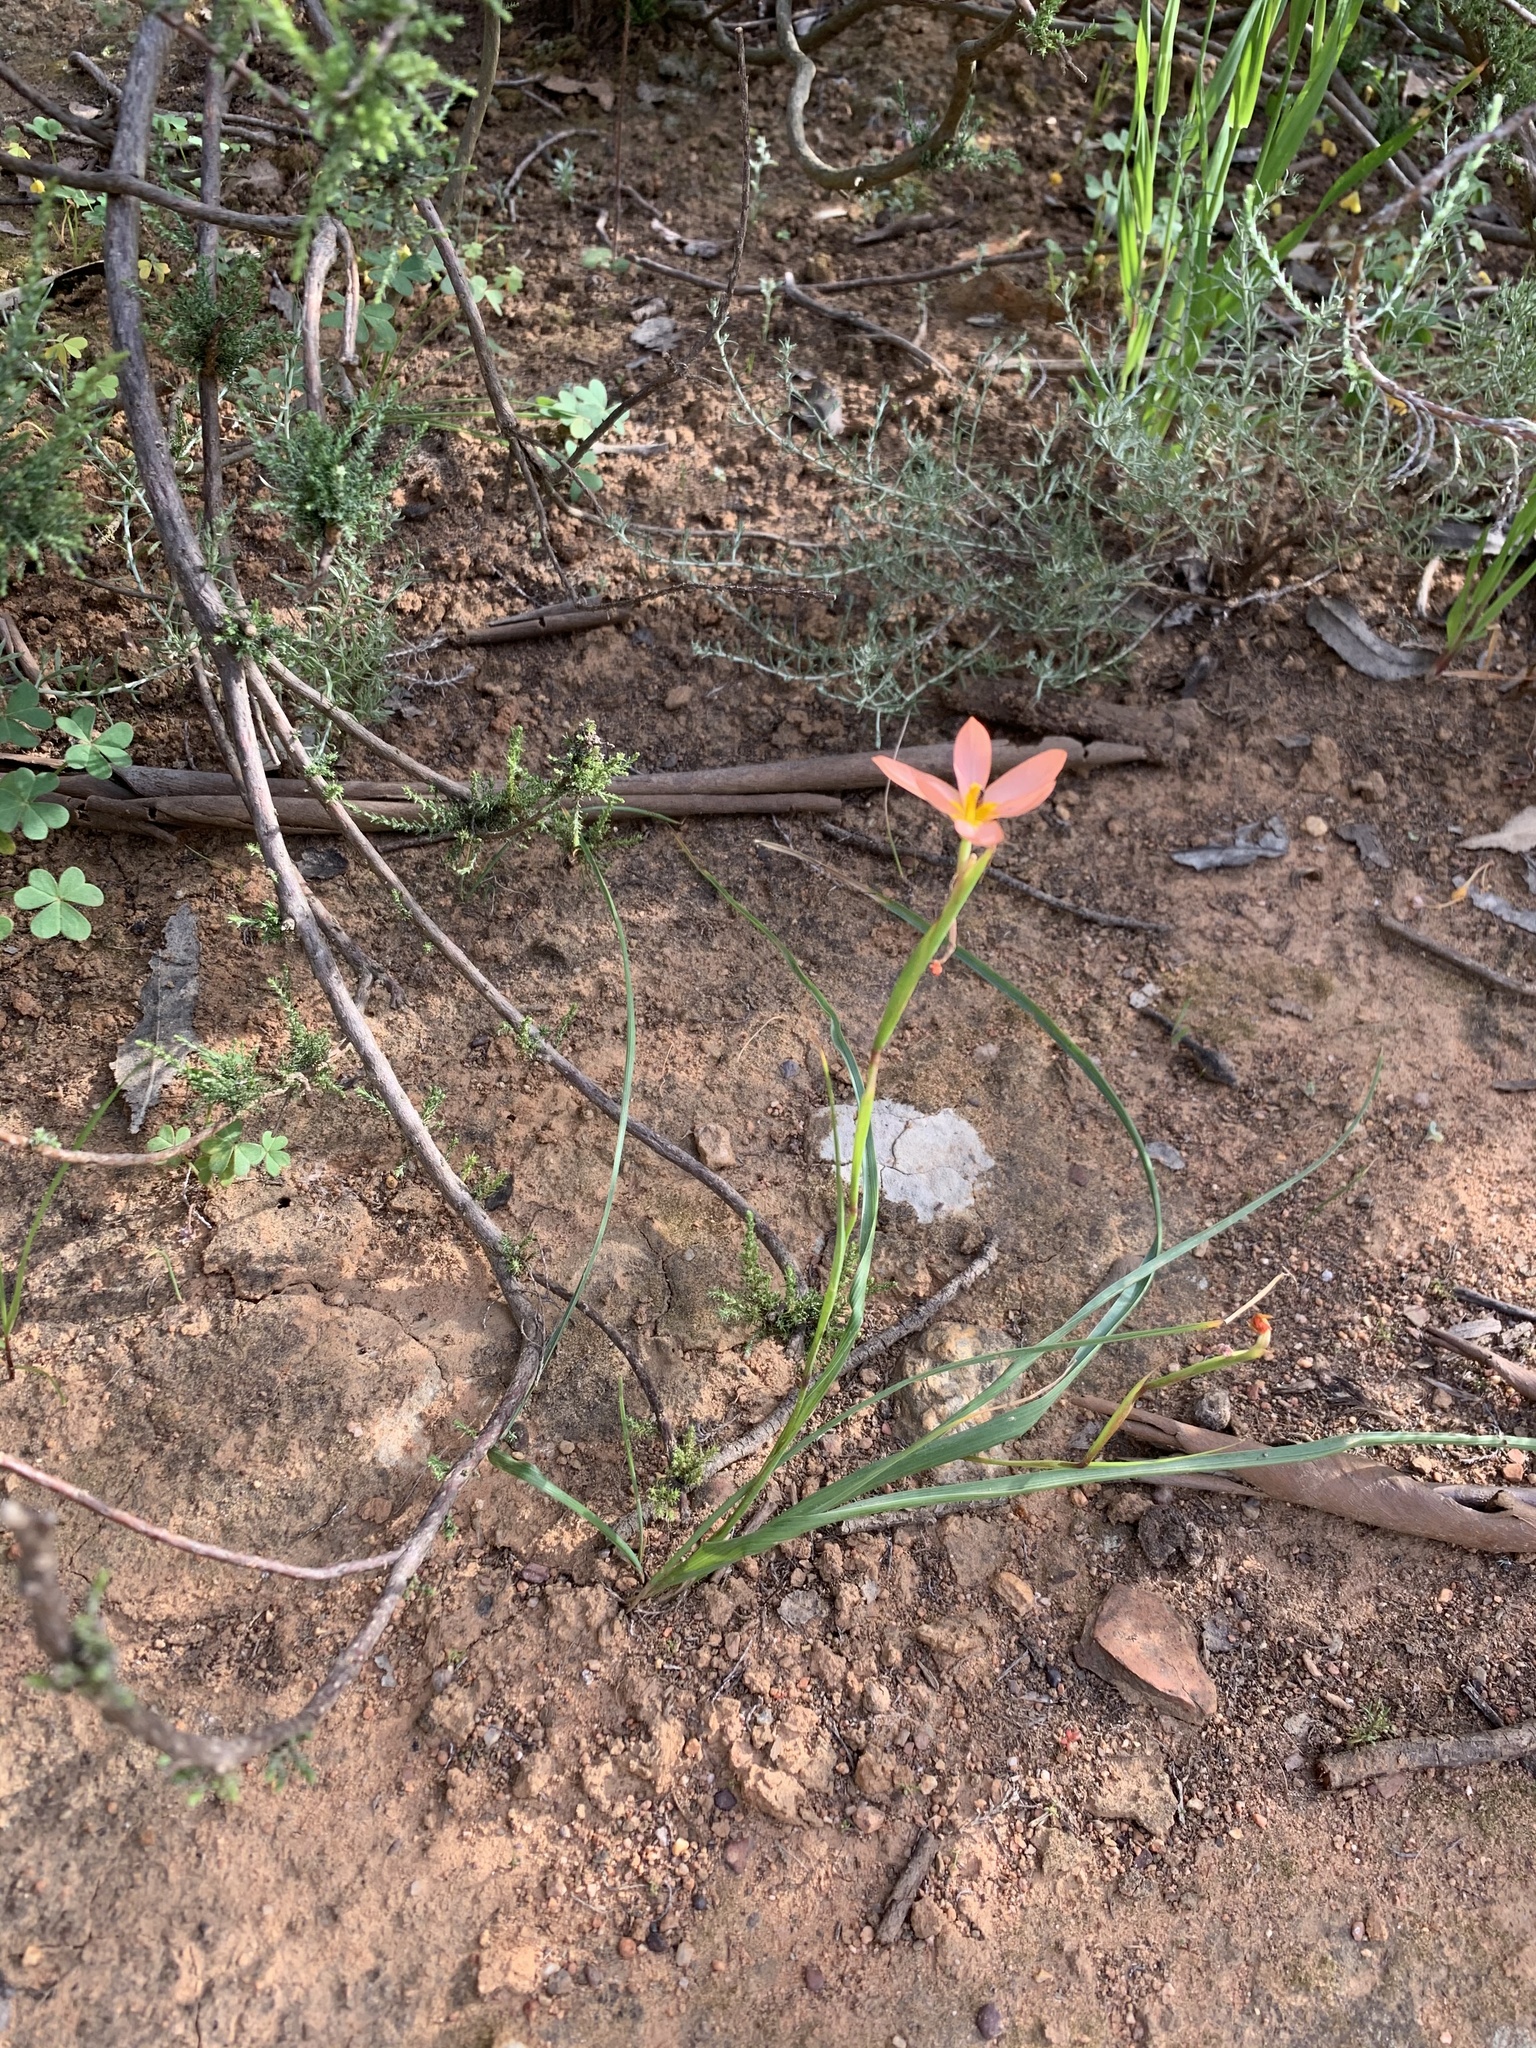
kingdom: Plantae
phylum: Tracheophyta
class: Liliopsida
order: Asparagales
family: Iridaceae
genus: Moraea
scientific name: Moraea miniata
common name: Two-leaf cape-tulip
